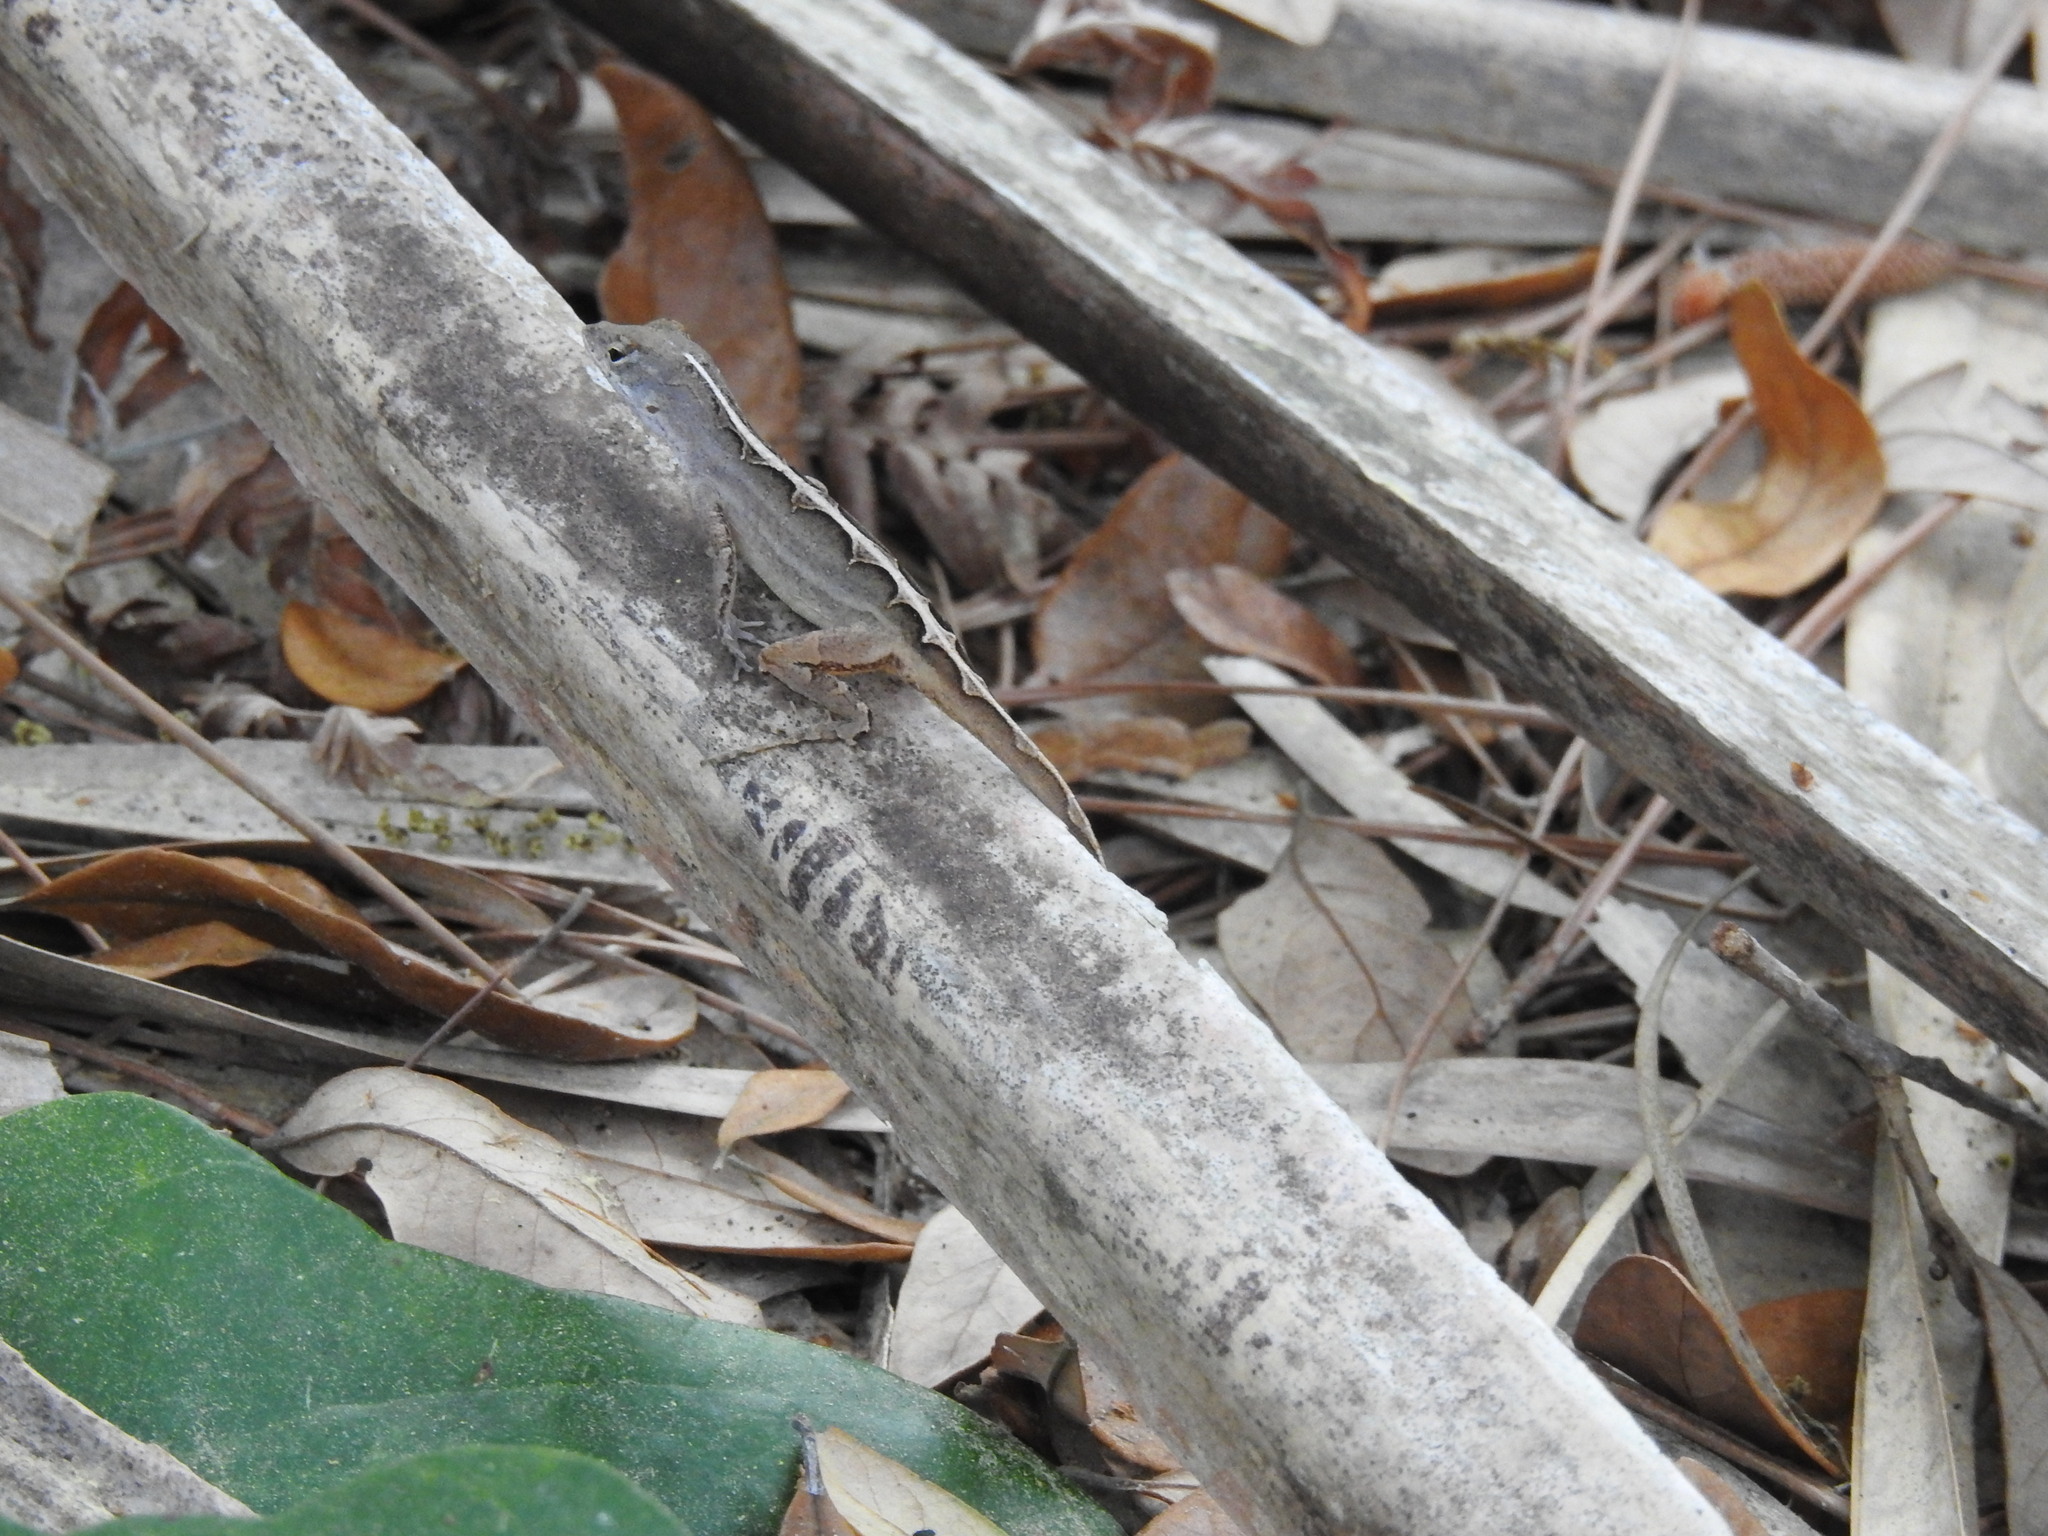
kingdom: Animalia
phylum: Chordata
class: Squamata
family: Dactyloidae
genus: Anolis
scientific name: Anolis sagrei
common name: Brown anole
